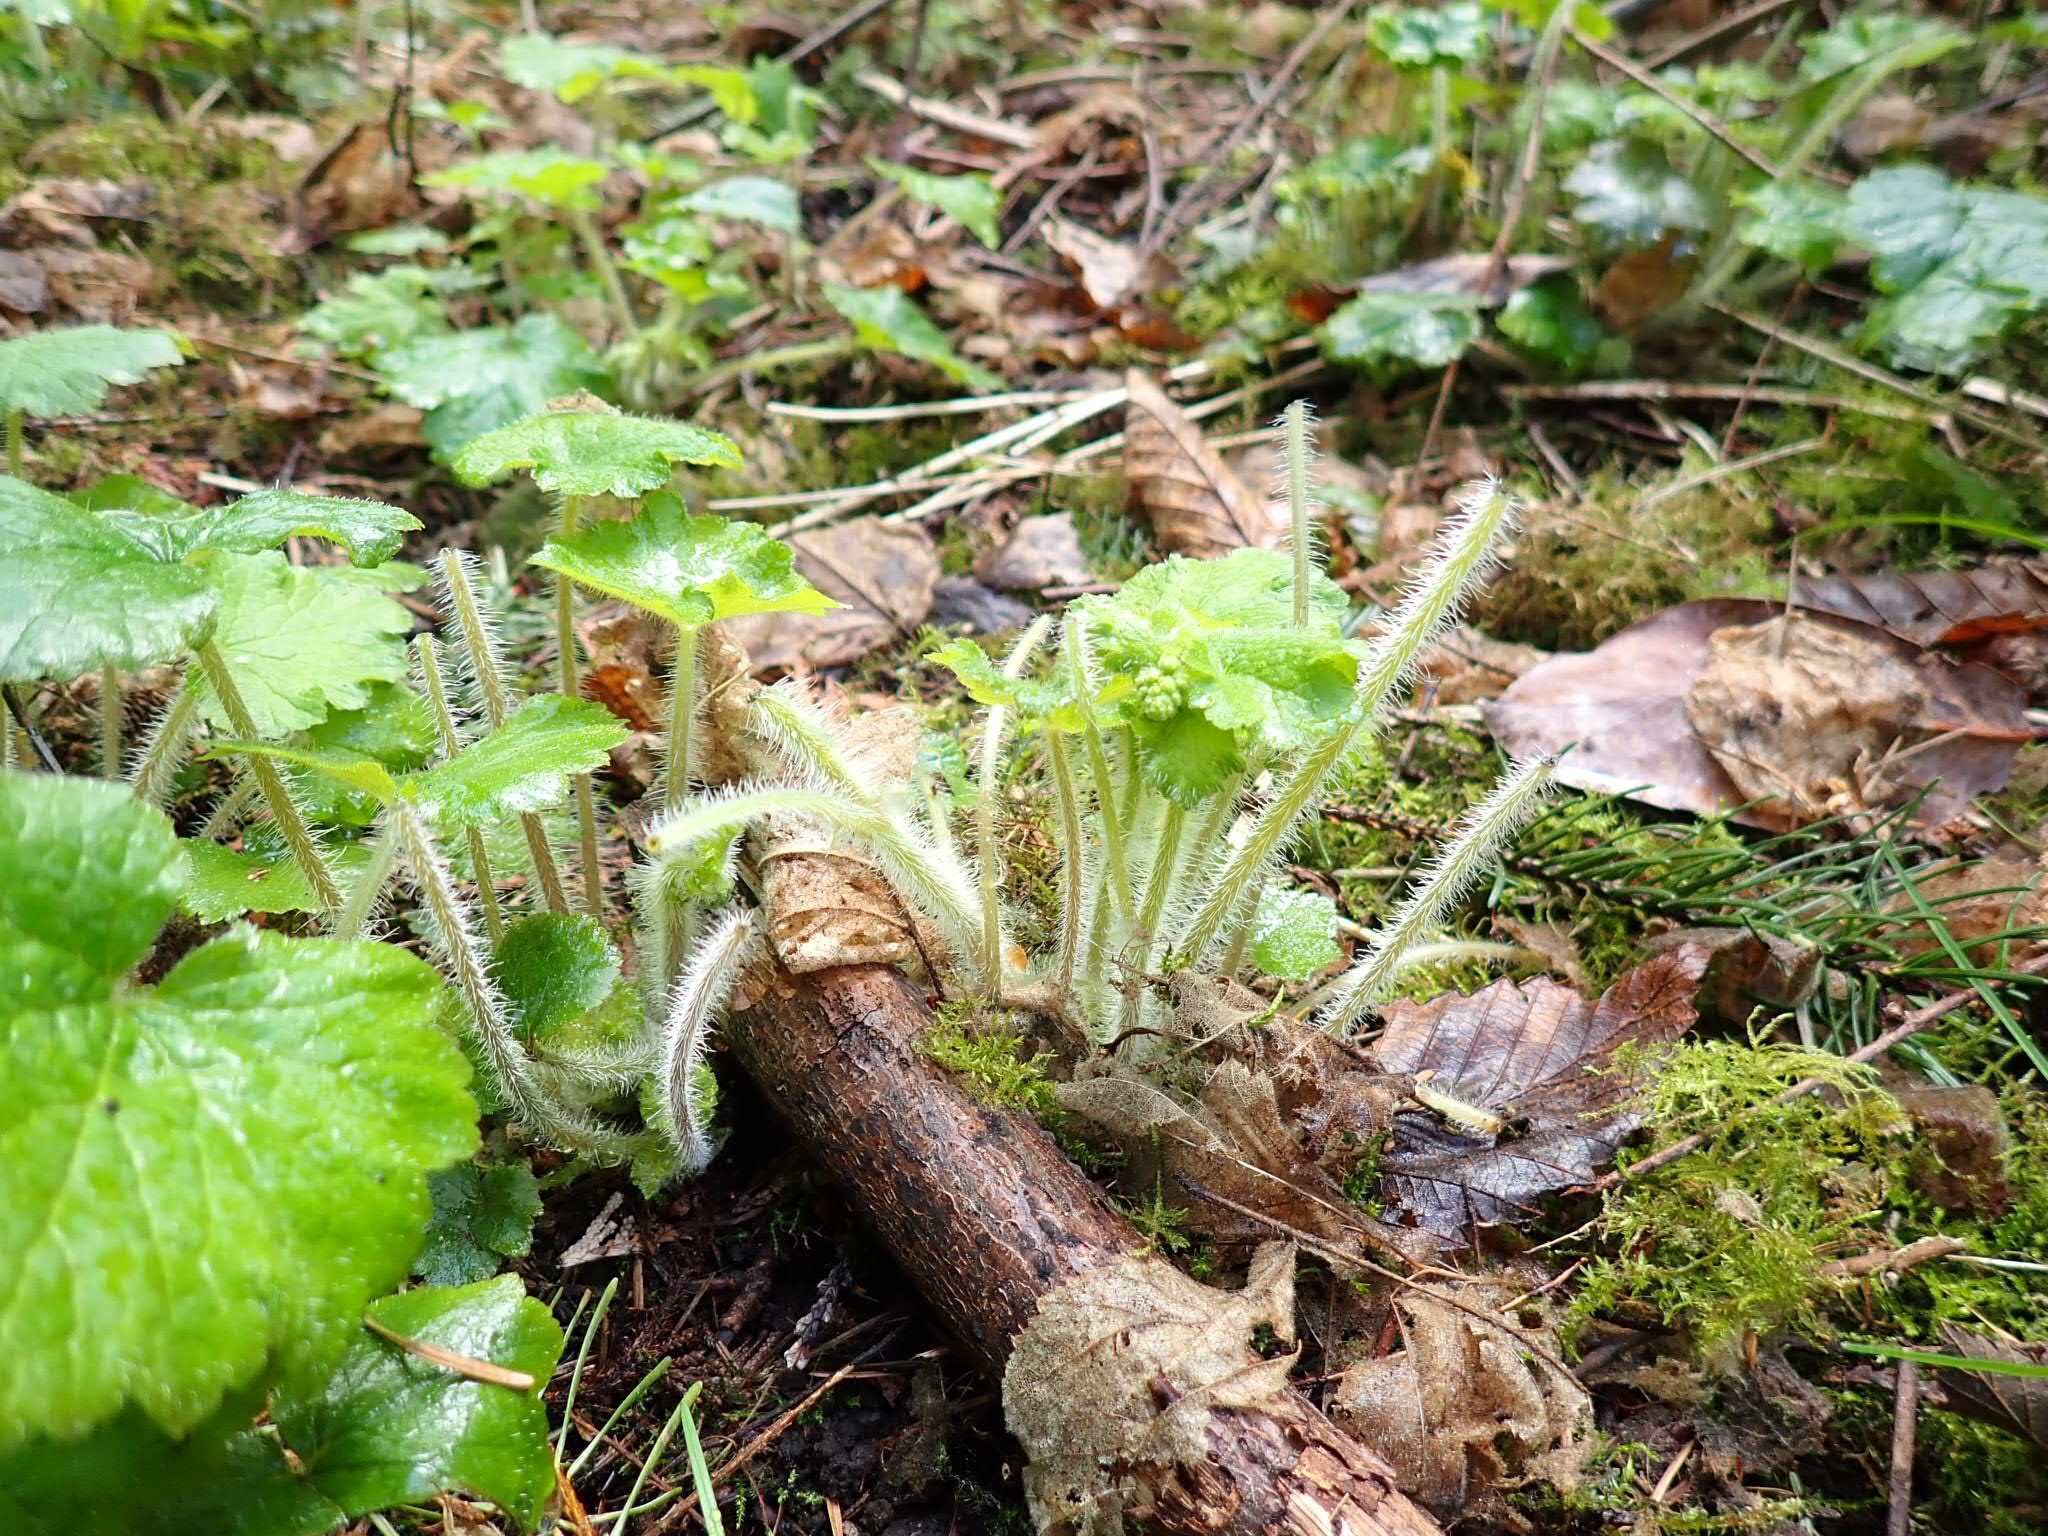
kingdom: Plantae
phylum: Tracheophyta
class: Magnoliopsida
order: Saxifragales
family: Saxifragaceae
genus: Tellima
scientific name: Tellima grandiflora
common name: Fringecups
